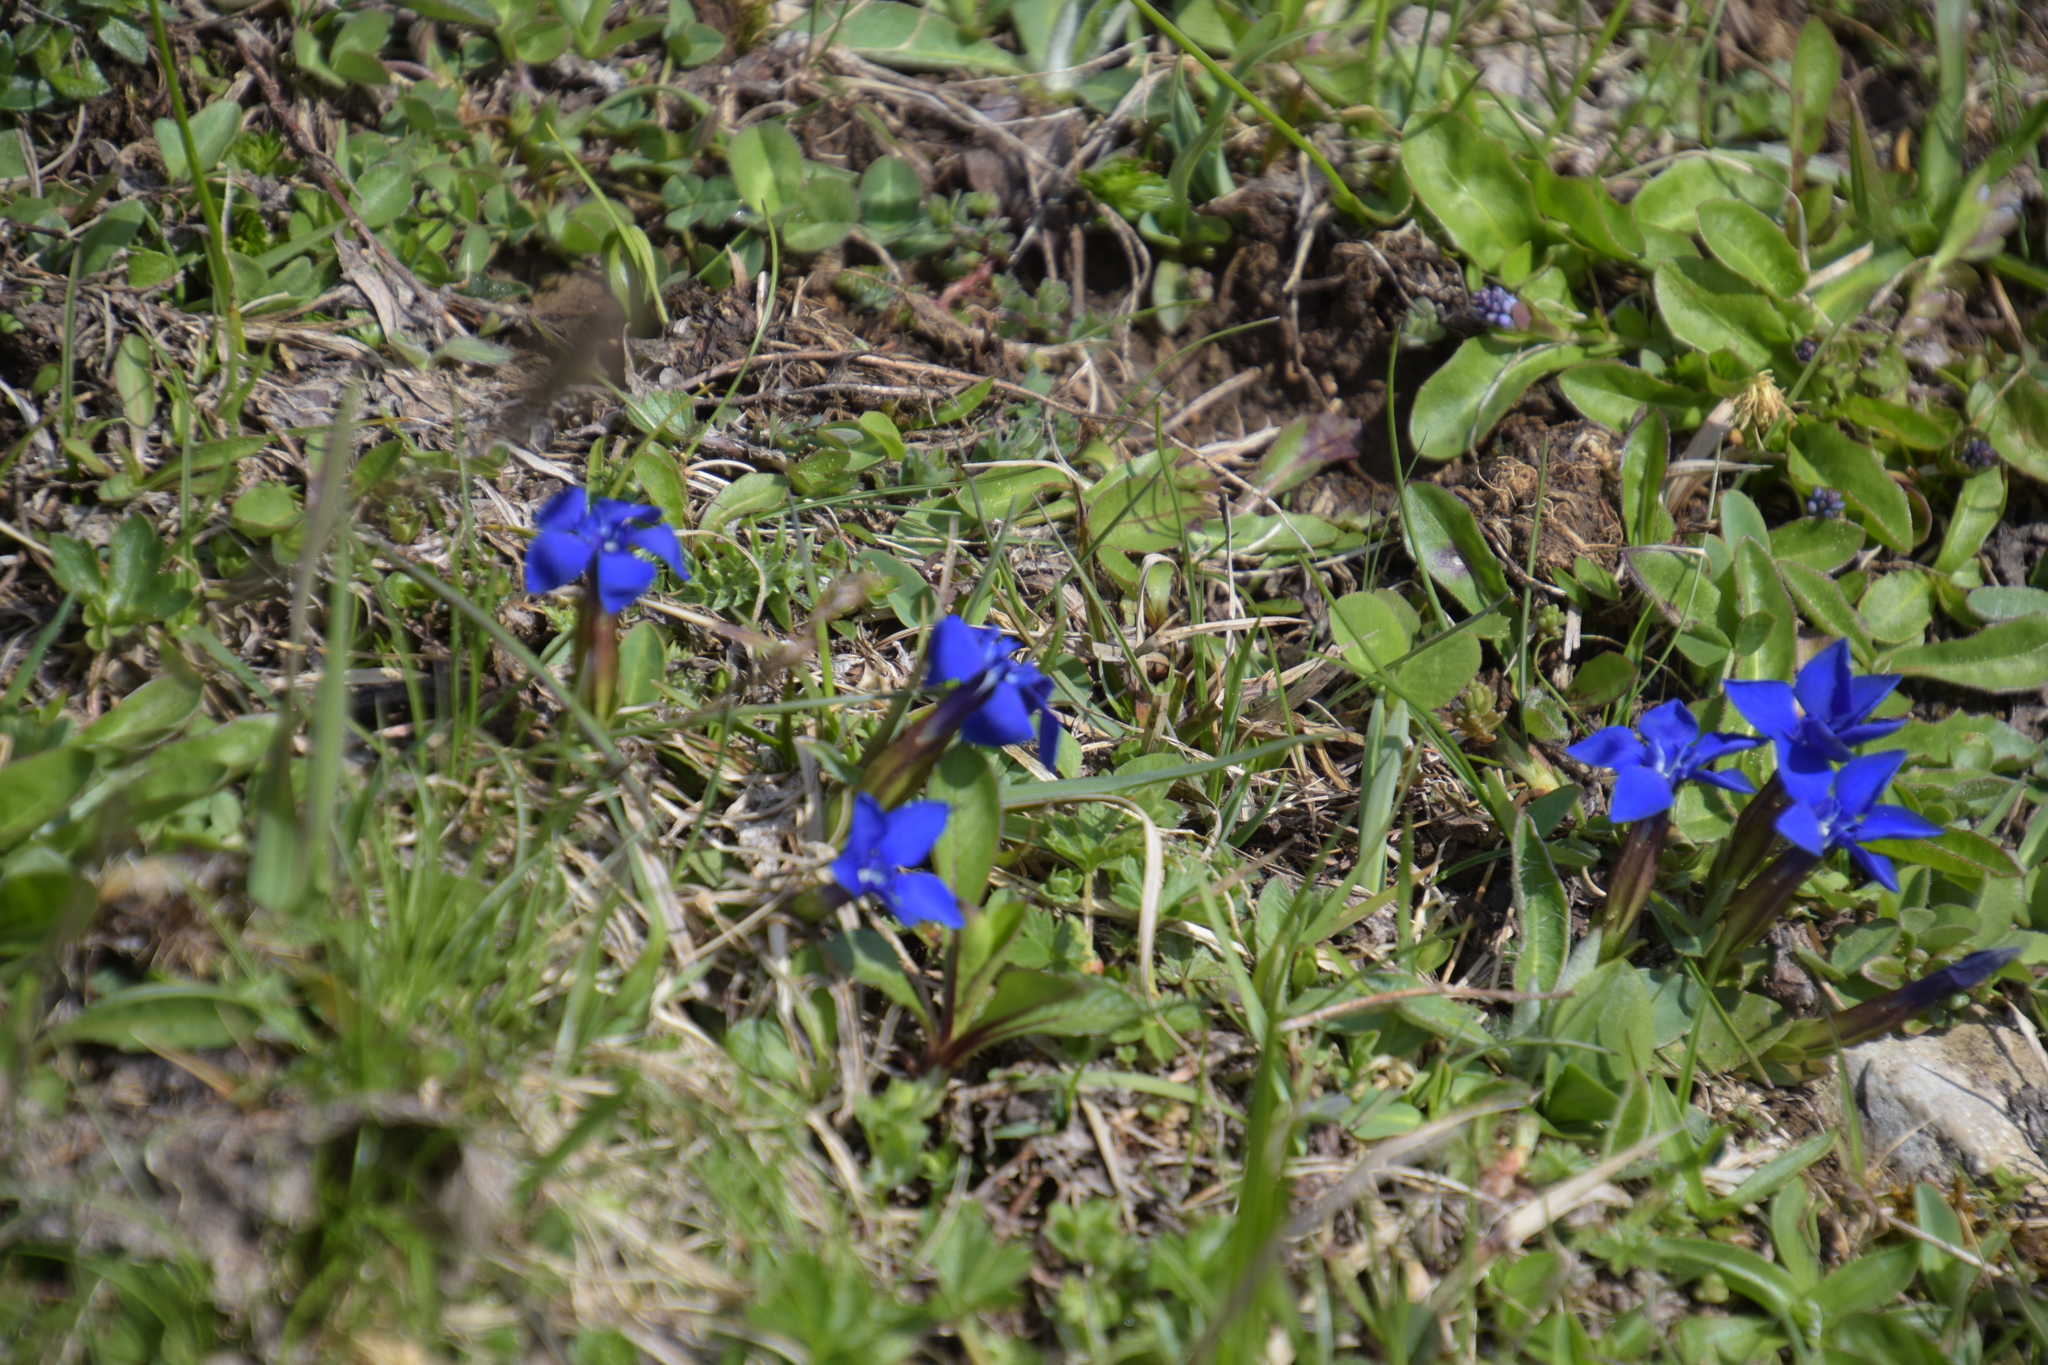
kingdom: Plantae
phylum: Tracheophyta
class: Magnoliopsida
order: Gentianales
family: Gentianaceae
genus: Gentiana
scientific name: Gentiana verna
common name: Spring gentian
